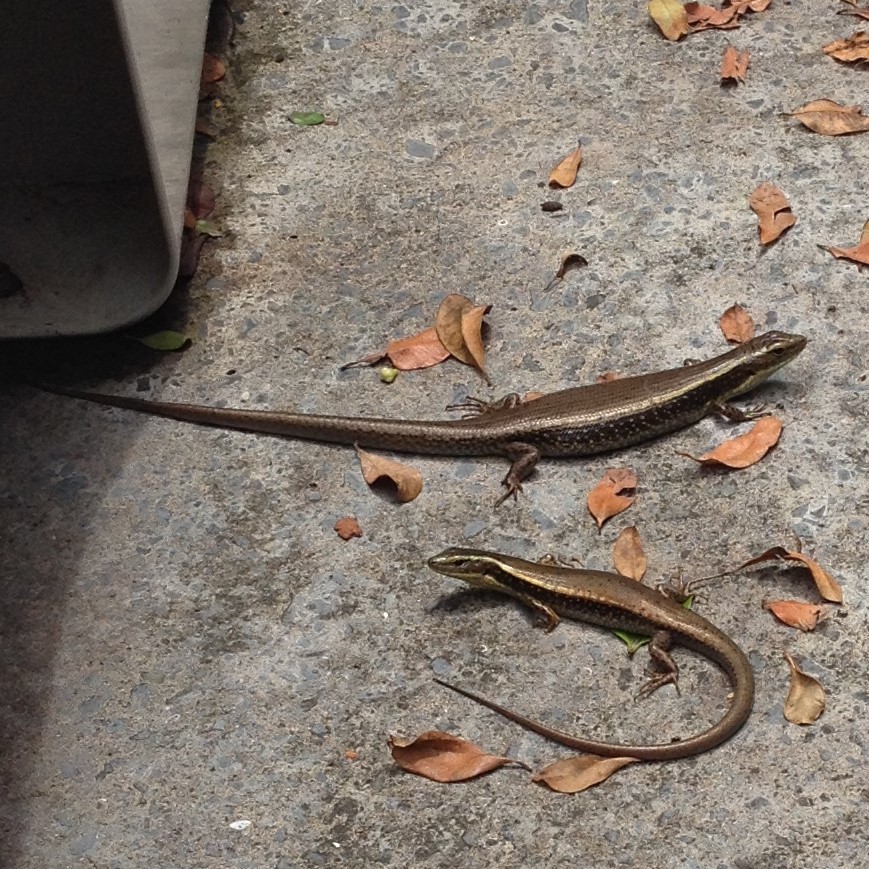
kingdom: Animalia
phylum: Chordata
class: Squamata
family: Scincidae
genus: Eulamprus
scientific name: Eulamprus quoyii
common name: Eastern water skink
